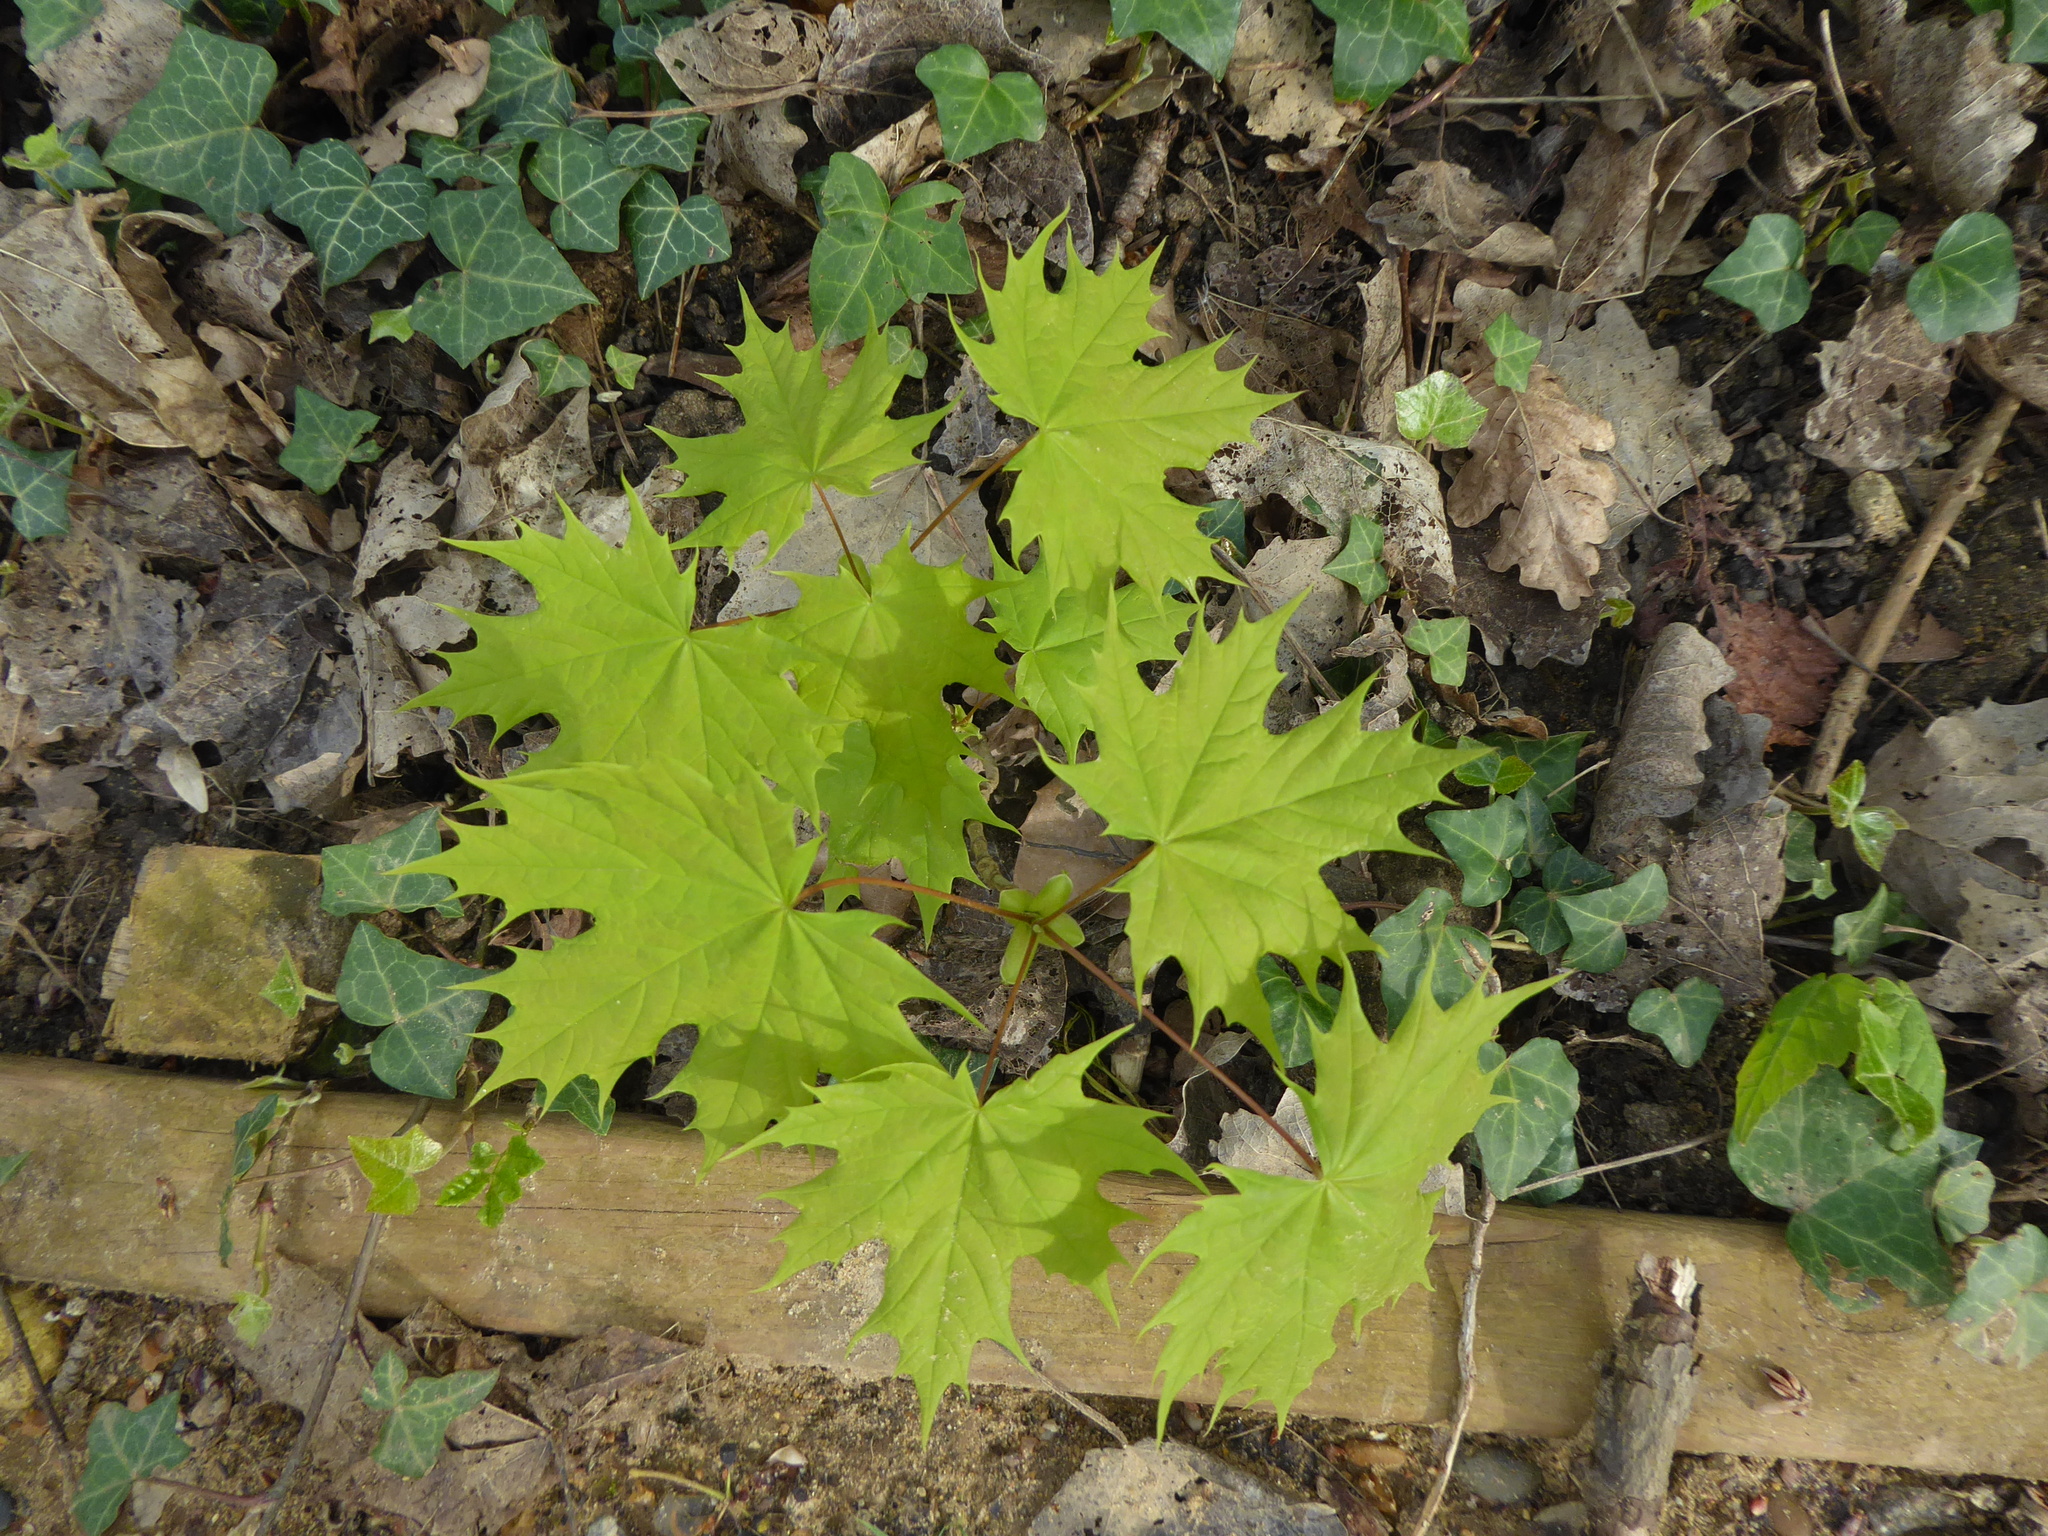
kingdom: Plantae
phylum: Tracheophyta
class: Magnoliopsida
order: Sapindales
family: Sapindaceae
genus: Acer
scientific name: Acer platanoides
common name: Norway maple
